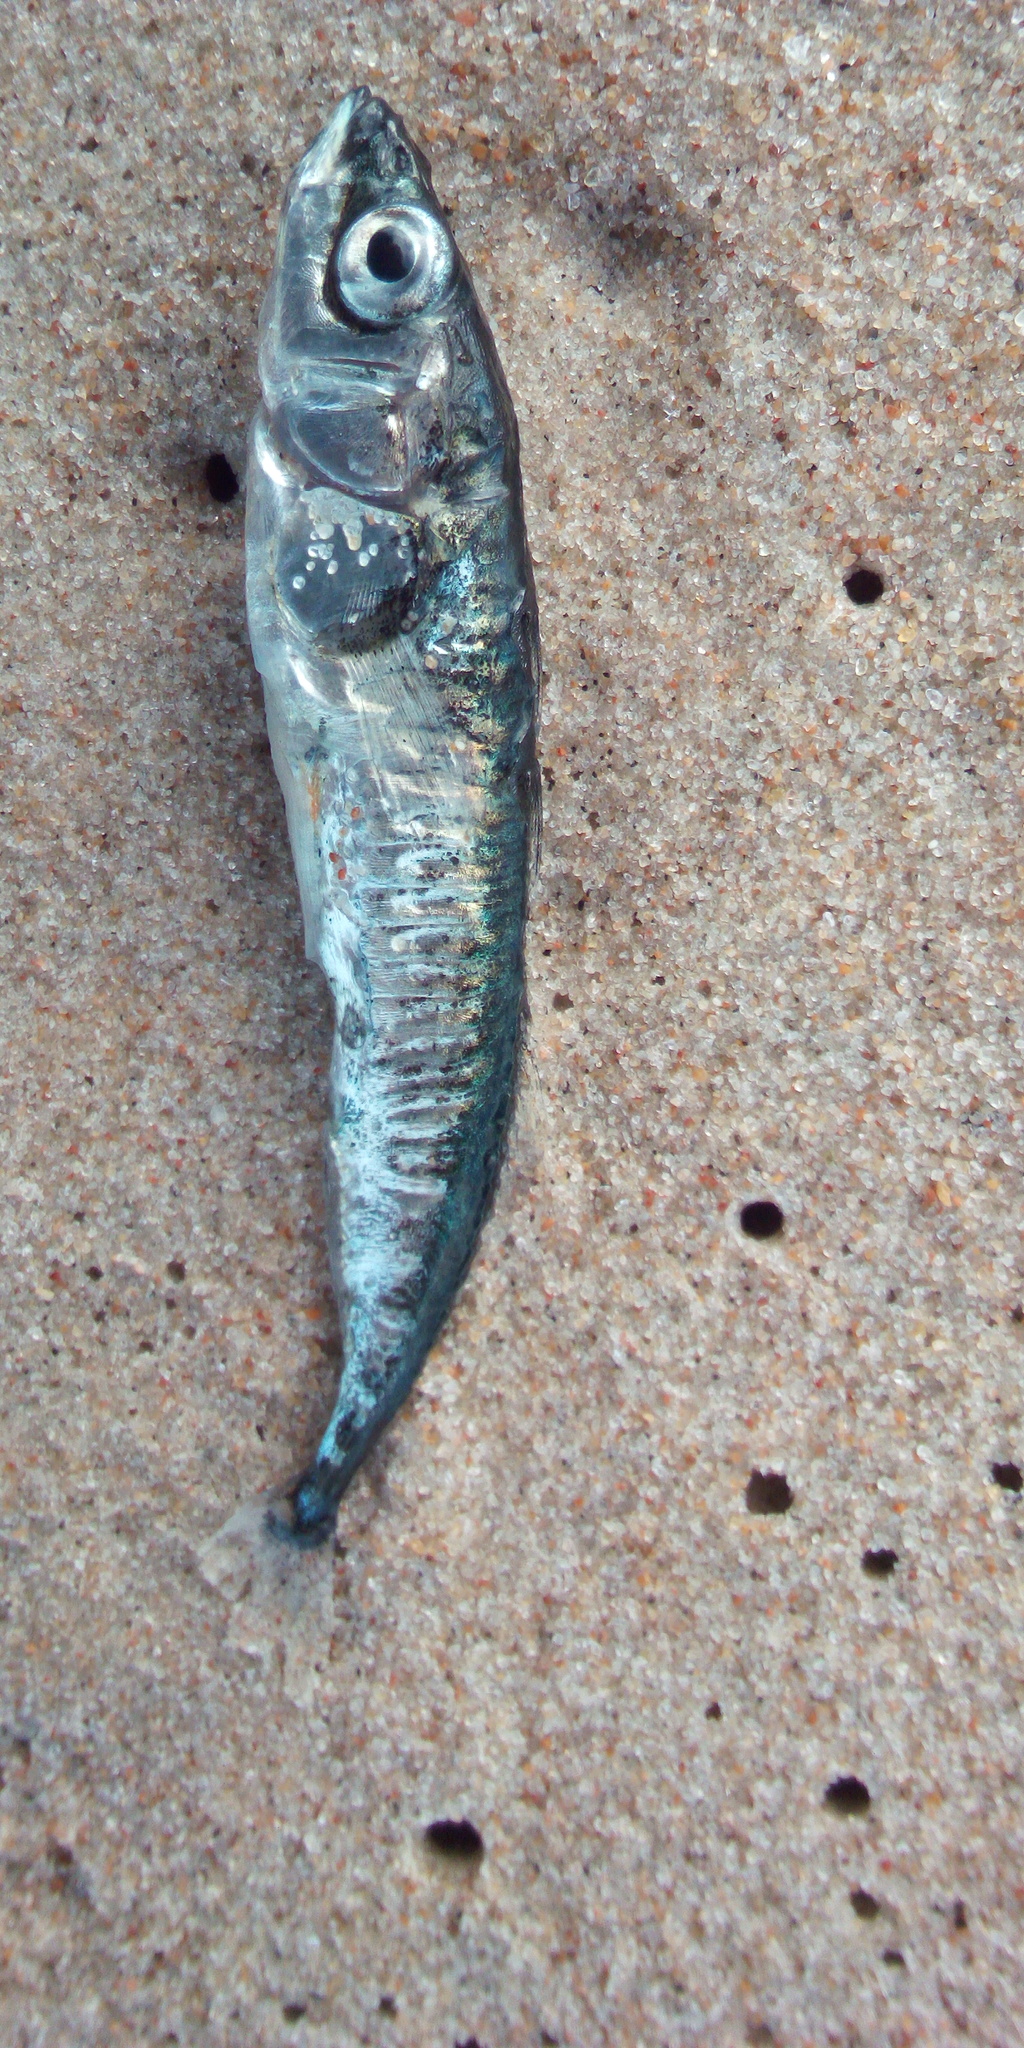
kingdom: Animalia
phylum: Chordata
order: Gasterosteiformes
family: Gasterosteidae
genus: Gasterosteus
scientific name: Gasterosteus aculeatus
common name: Three-spined stickleback
